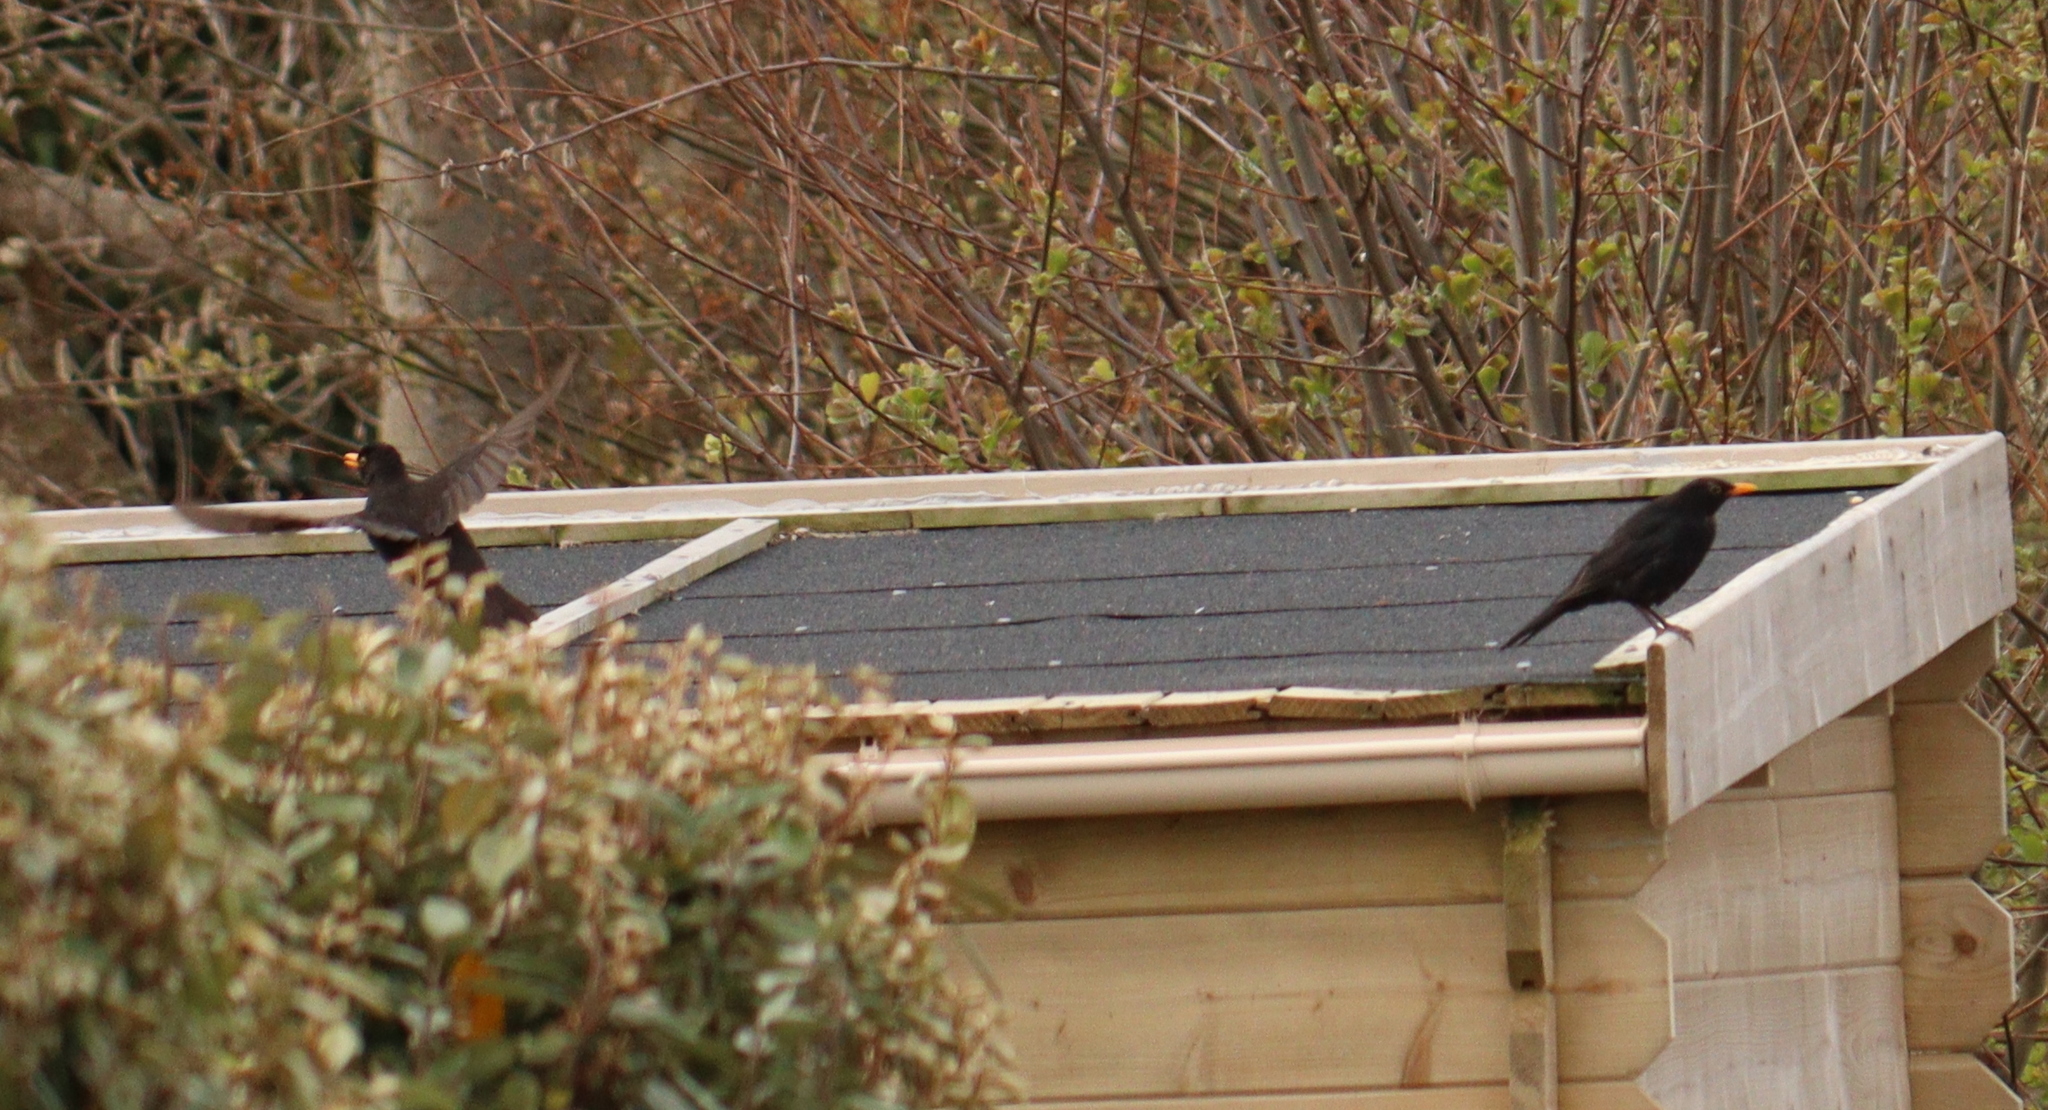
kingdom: Animalia
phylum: Chordata
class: Aves
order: Passeriformes
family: Turdidae
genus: Turdus
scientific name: Turdus merula
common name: Common blackbird
